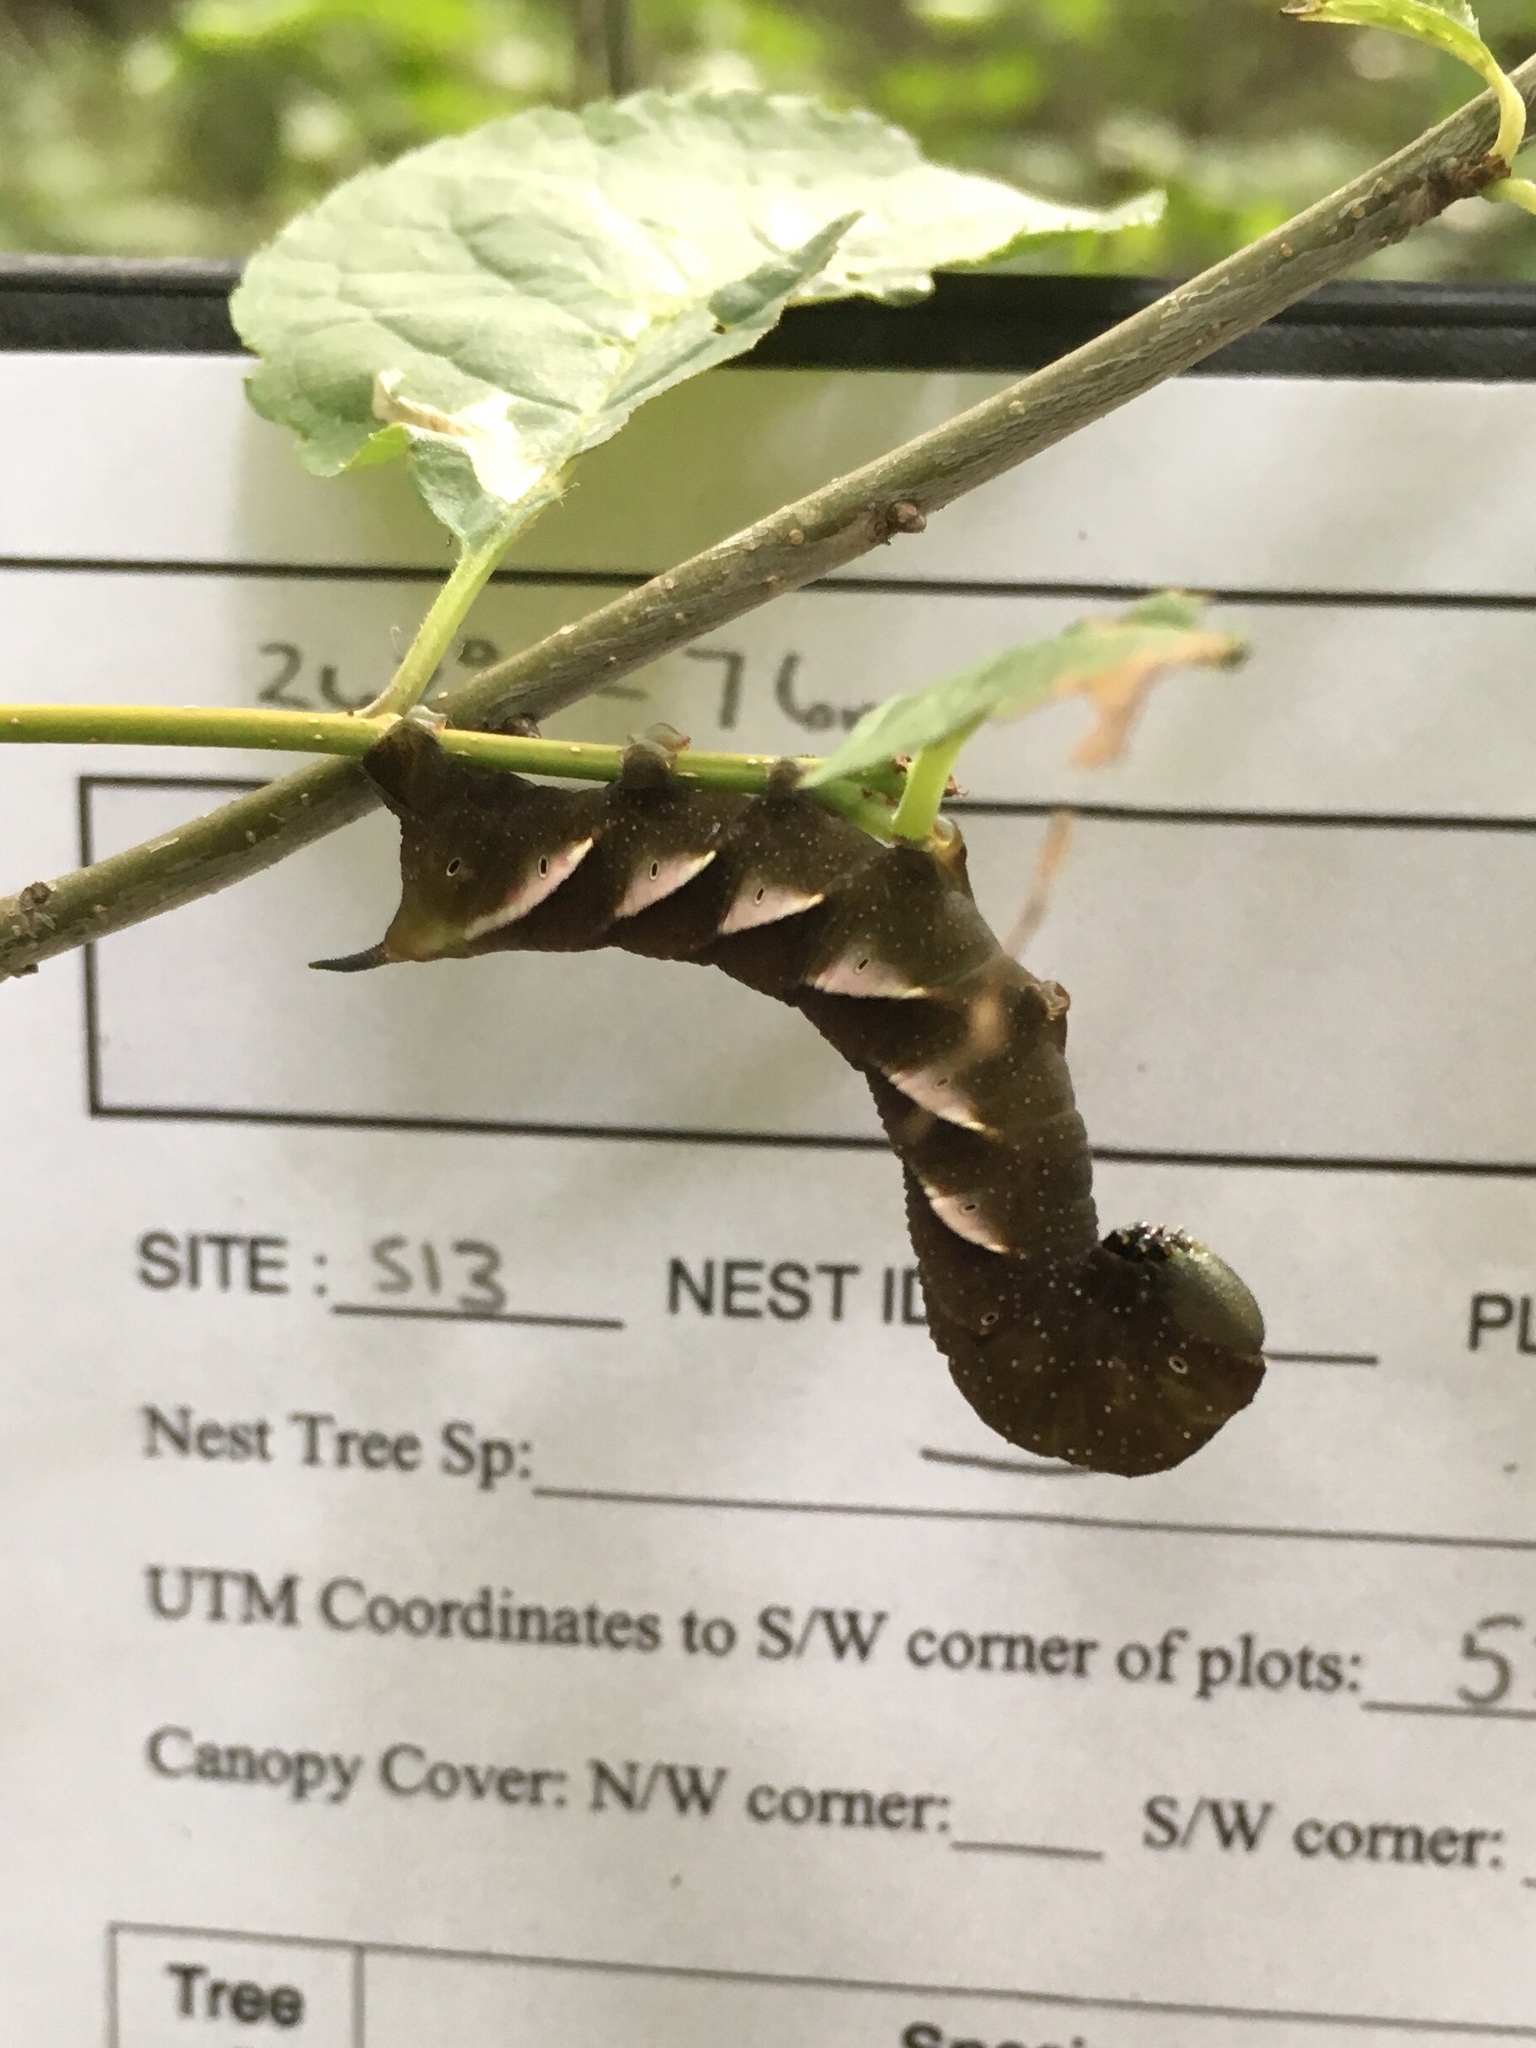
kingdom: Animalia
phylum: Arthropoda
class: Insecta
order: Lepidoptera
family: Sphingidae
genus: Dolba
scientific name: Dolba hyloeus
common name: Pawpaw sphinx
